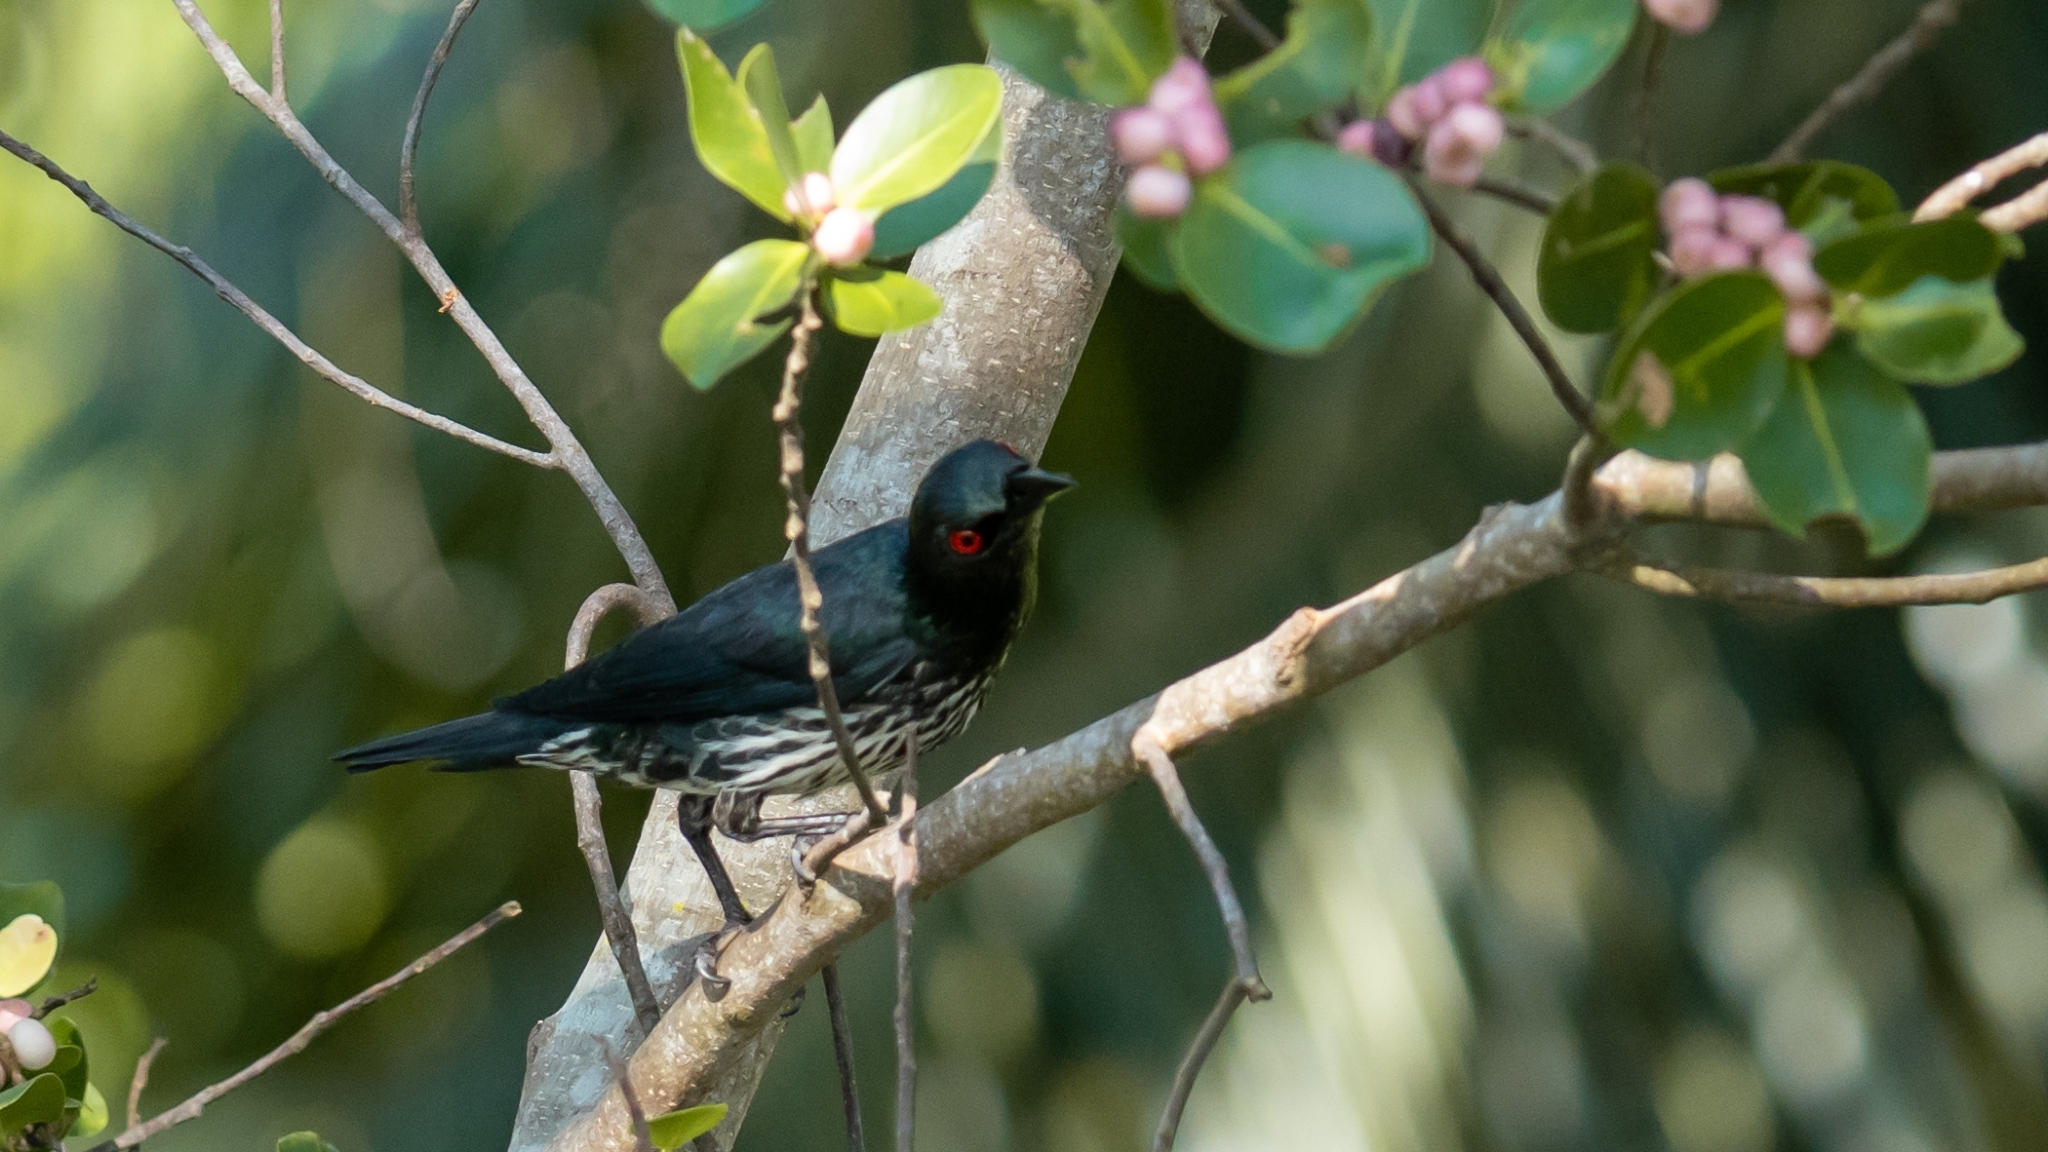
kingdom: Animalia
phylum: Chordata
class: Aves
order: Passeriformes
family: Sturnidae
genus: Aplonis
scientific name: Aplonis panayensis
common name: Asian glossy starling
